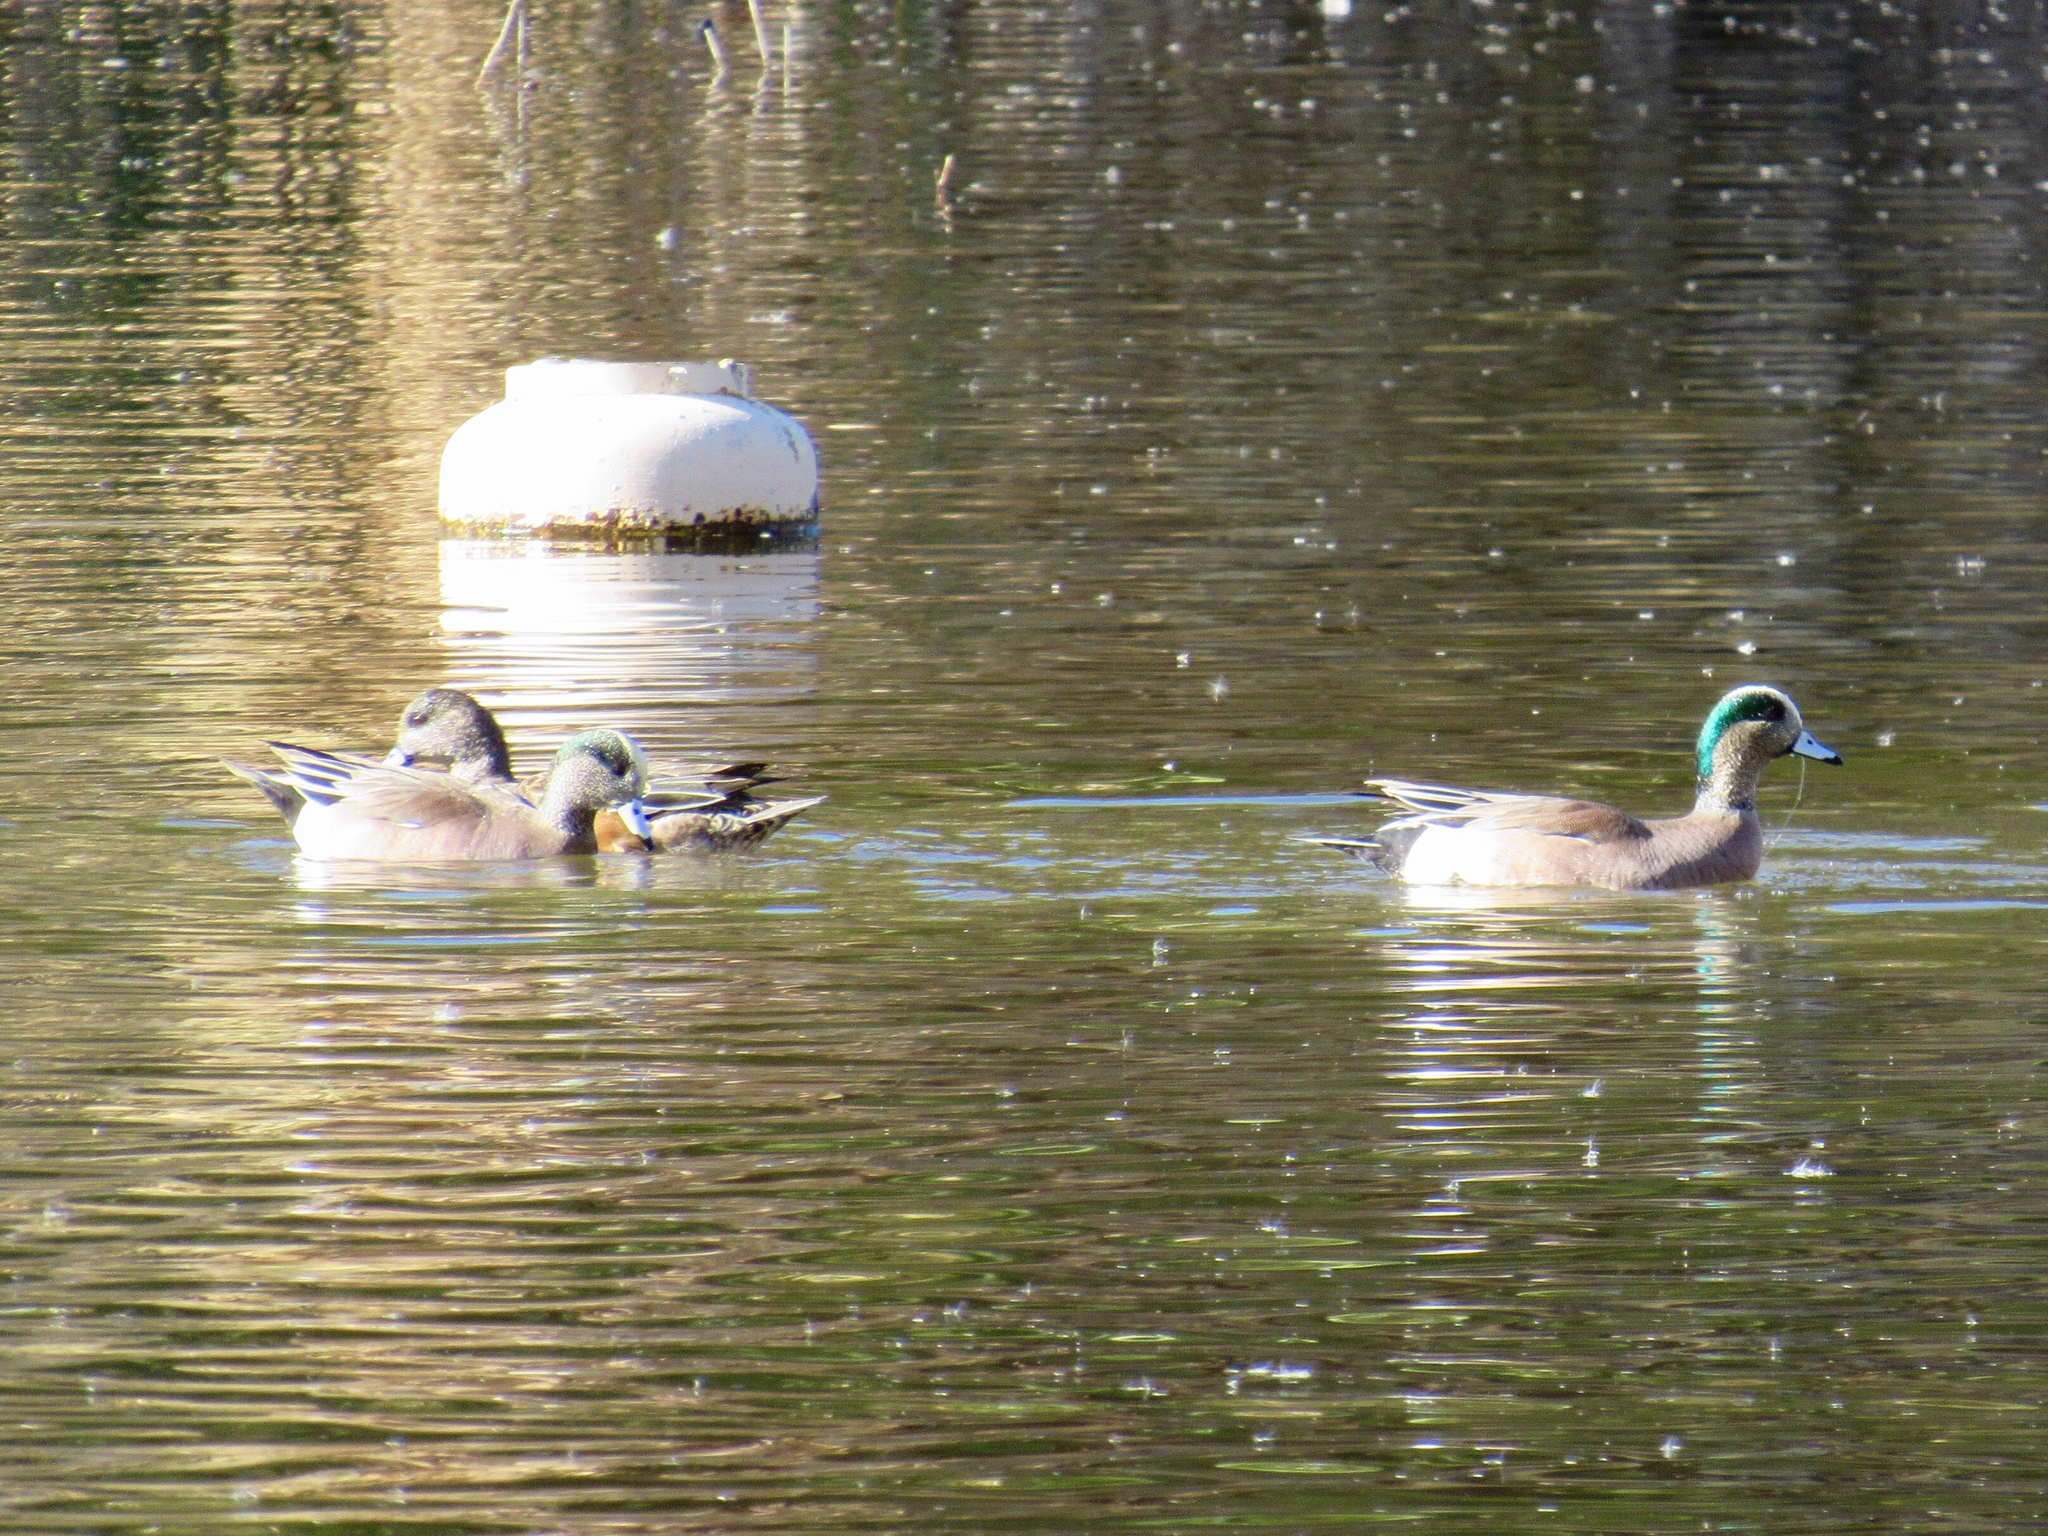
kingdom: Animalia
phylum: Chordata
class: Aves
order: Anseriformes
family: Anatidae
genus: Mareca
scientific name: Mareca americana
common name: American wigeon
